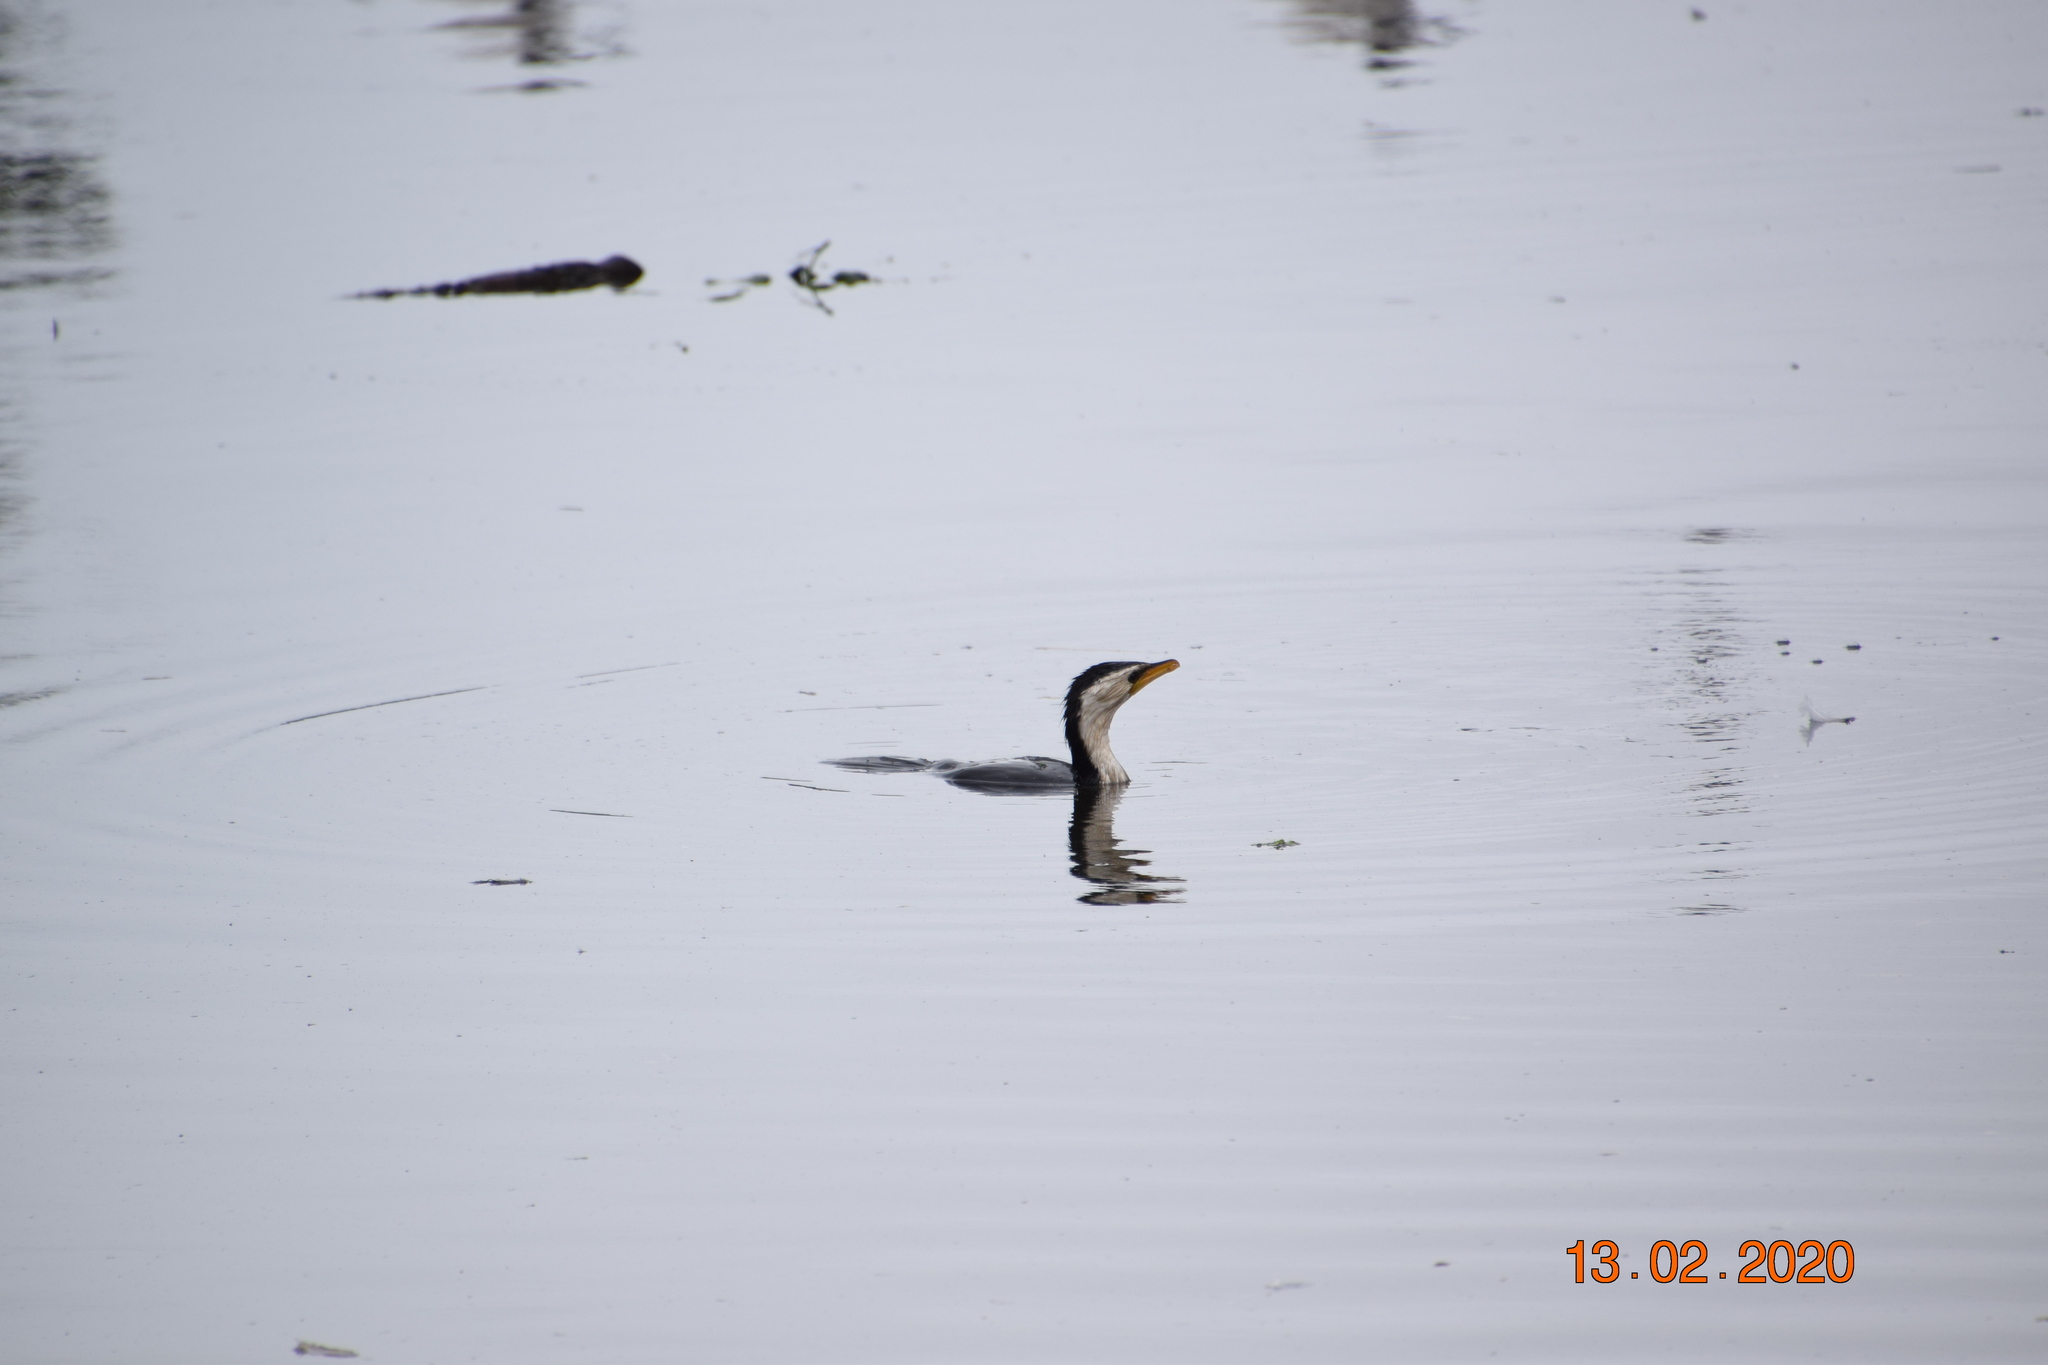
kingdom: Animalia
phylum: Chordata
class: Aves
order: Suliformes
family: Phalacrocoracidae
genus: Microcarbo
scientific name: Microcarbo melanoleucos
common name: Little pied cormorant
